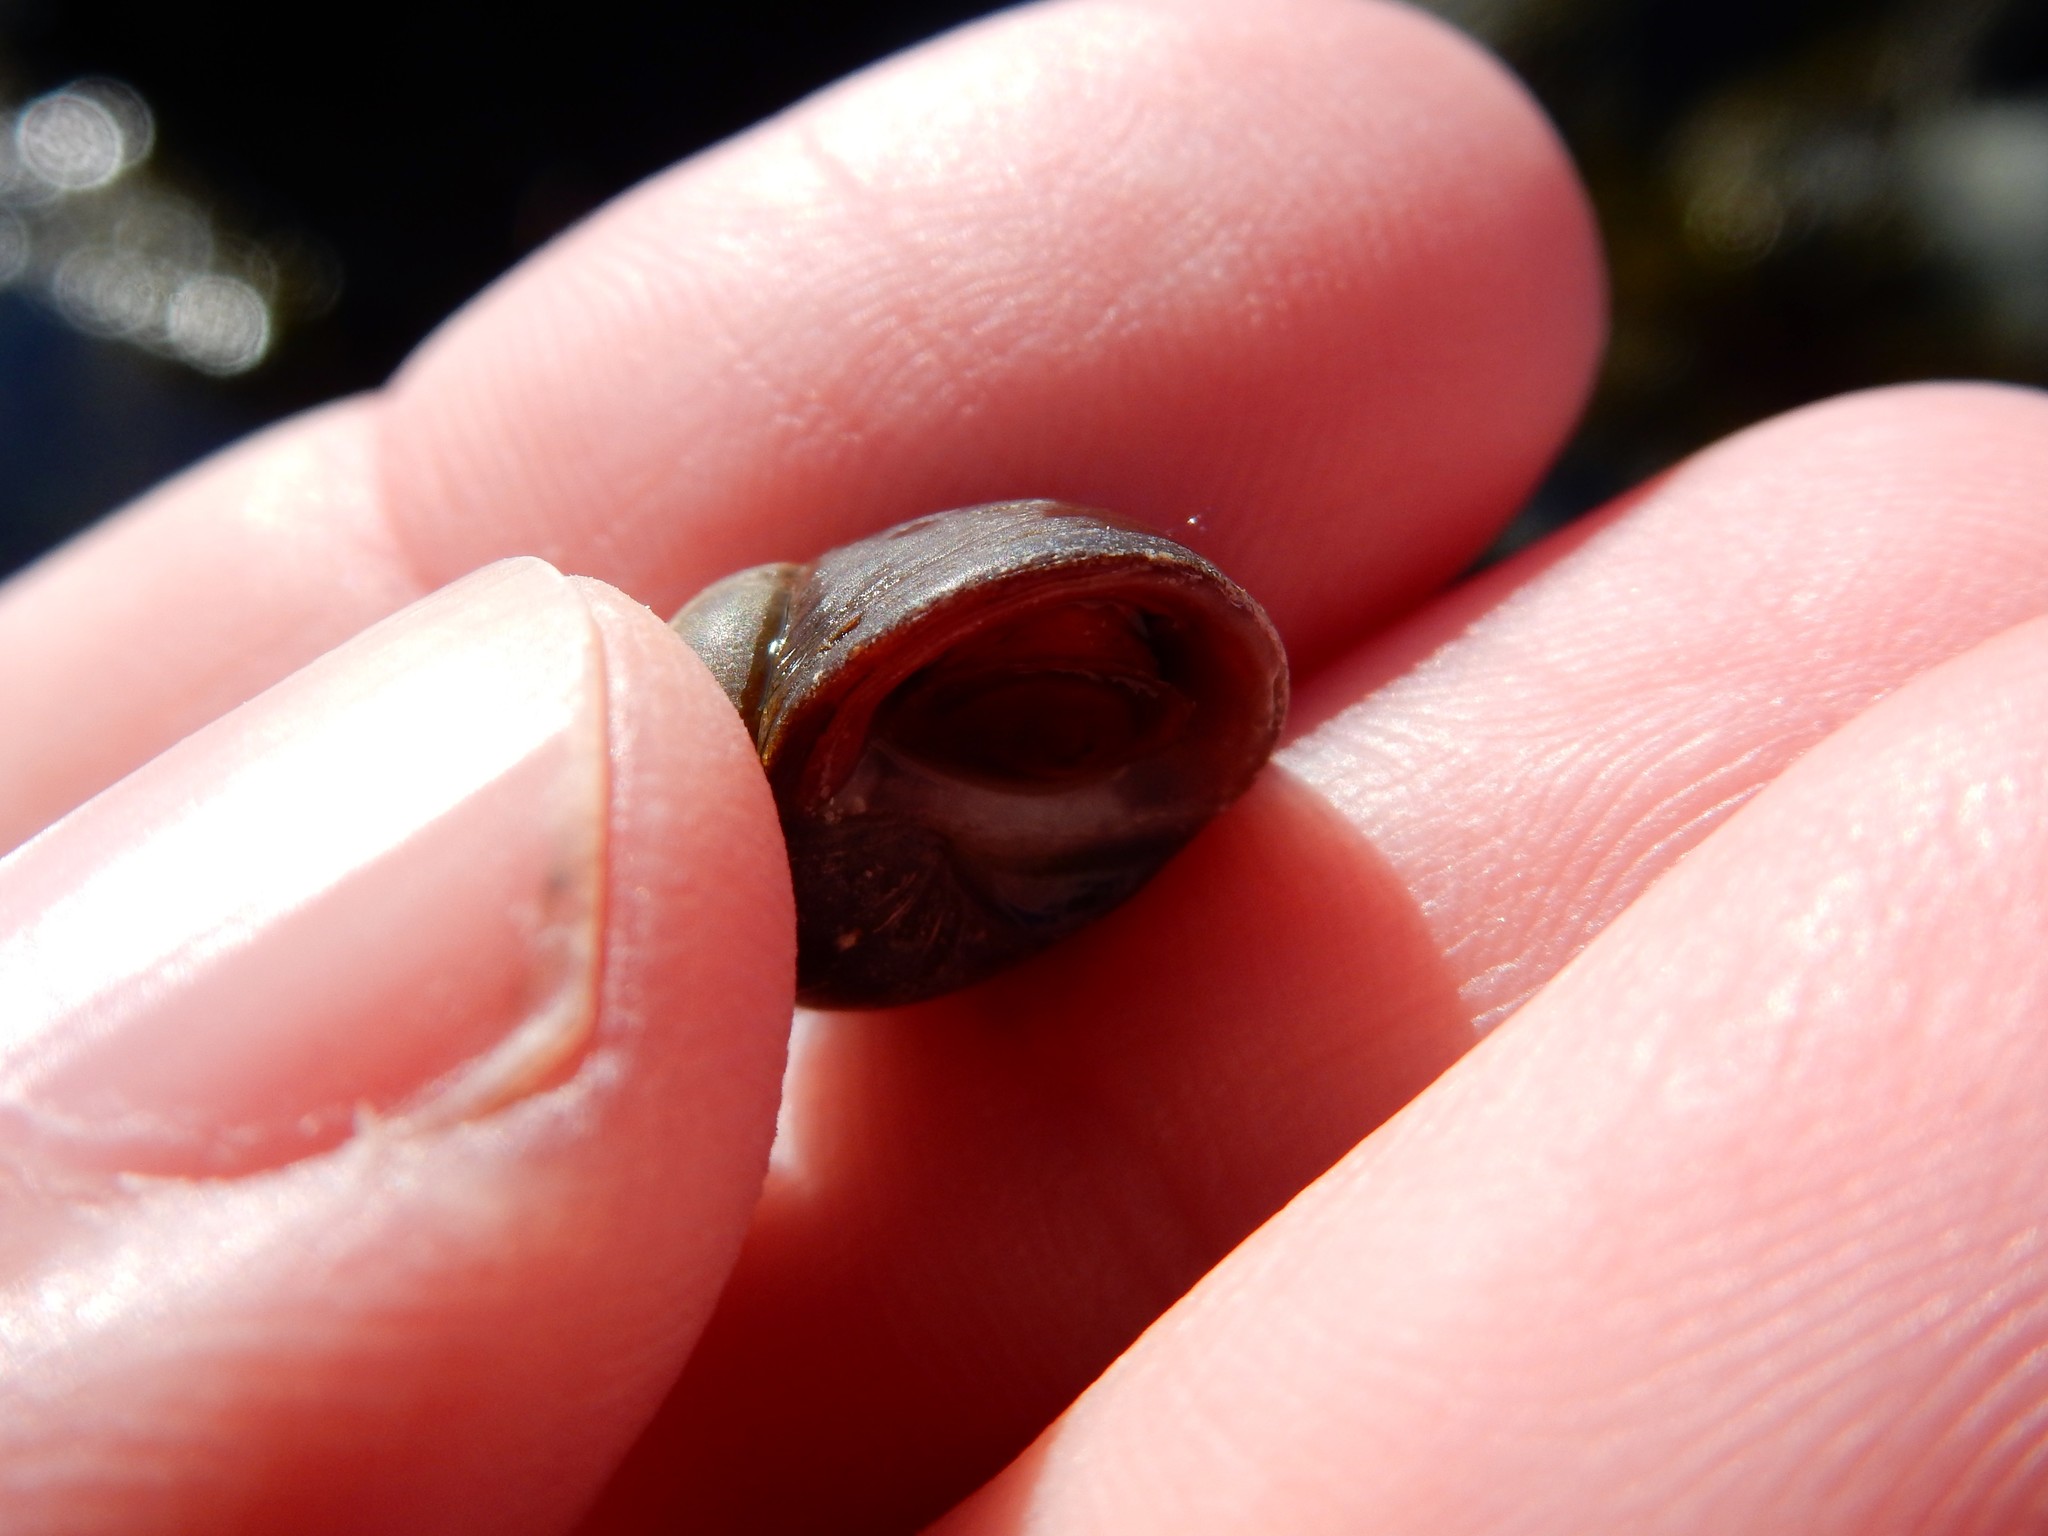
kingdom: Animalia
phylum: Mollusca
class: Gastropoda
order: Littorinimorpha
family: Littorinidae
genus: Littorina
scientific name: Littorina obtusata
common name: Flat periwinkle
